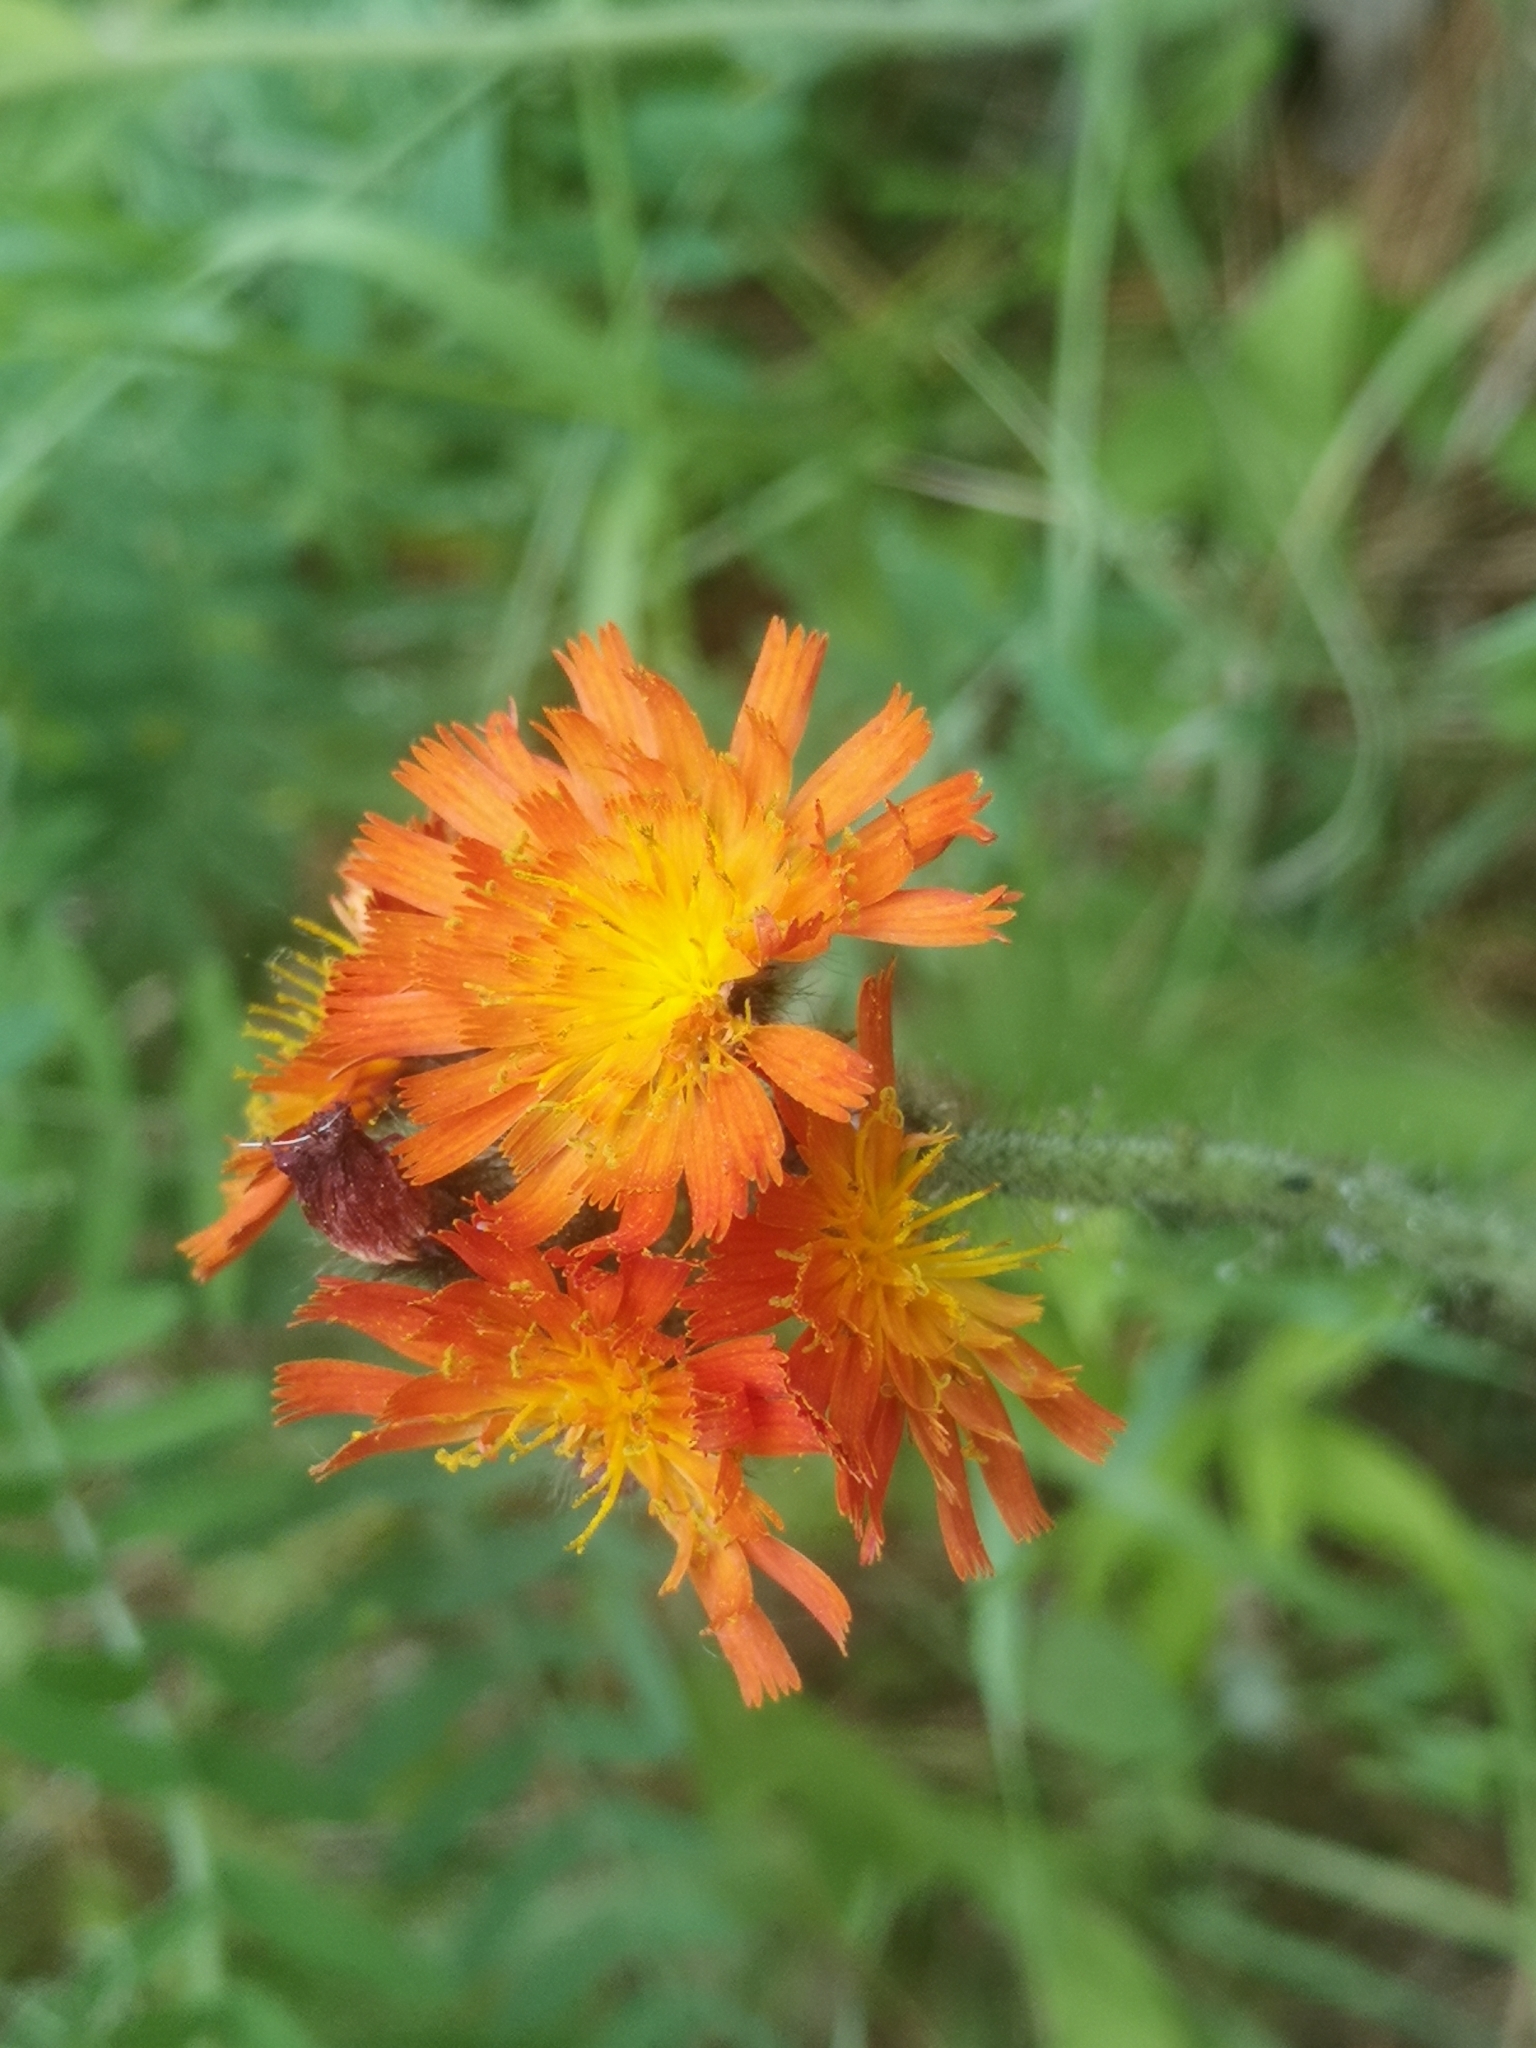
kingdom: Plantae
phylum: Tracheophyta
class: Magnoliopsida
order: Asterales
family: Asteraceae
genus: Pilosella
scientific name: Pilosella aurantiaca
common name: Fox-and-cubs
